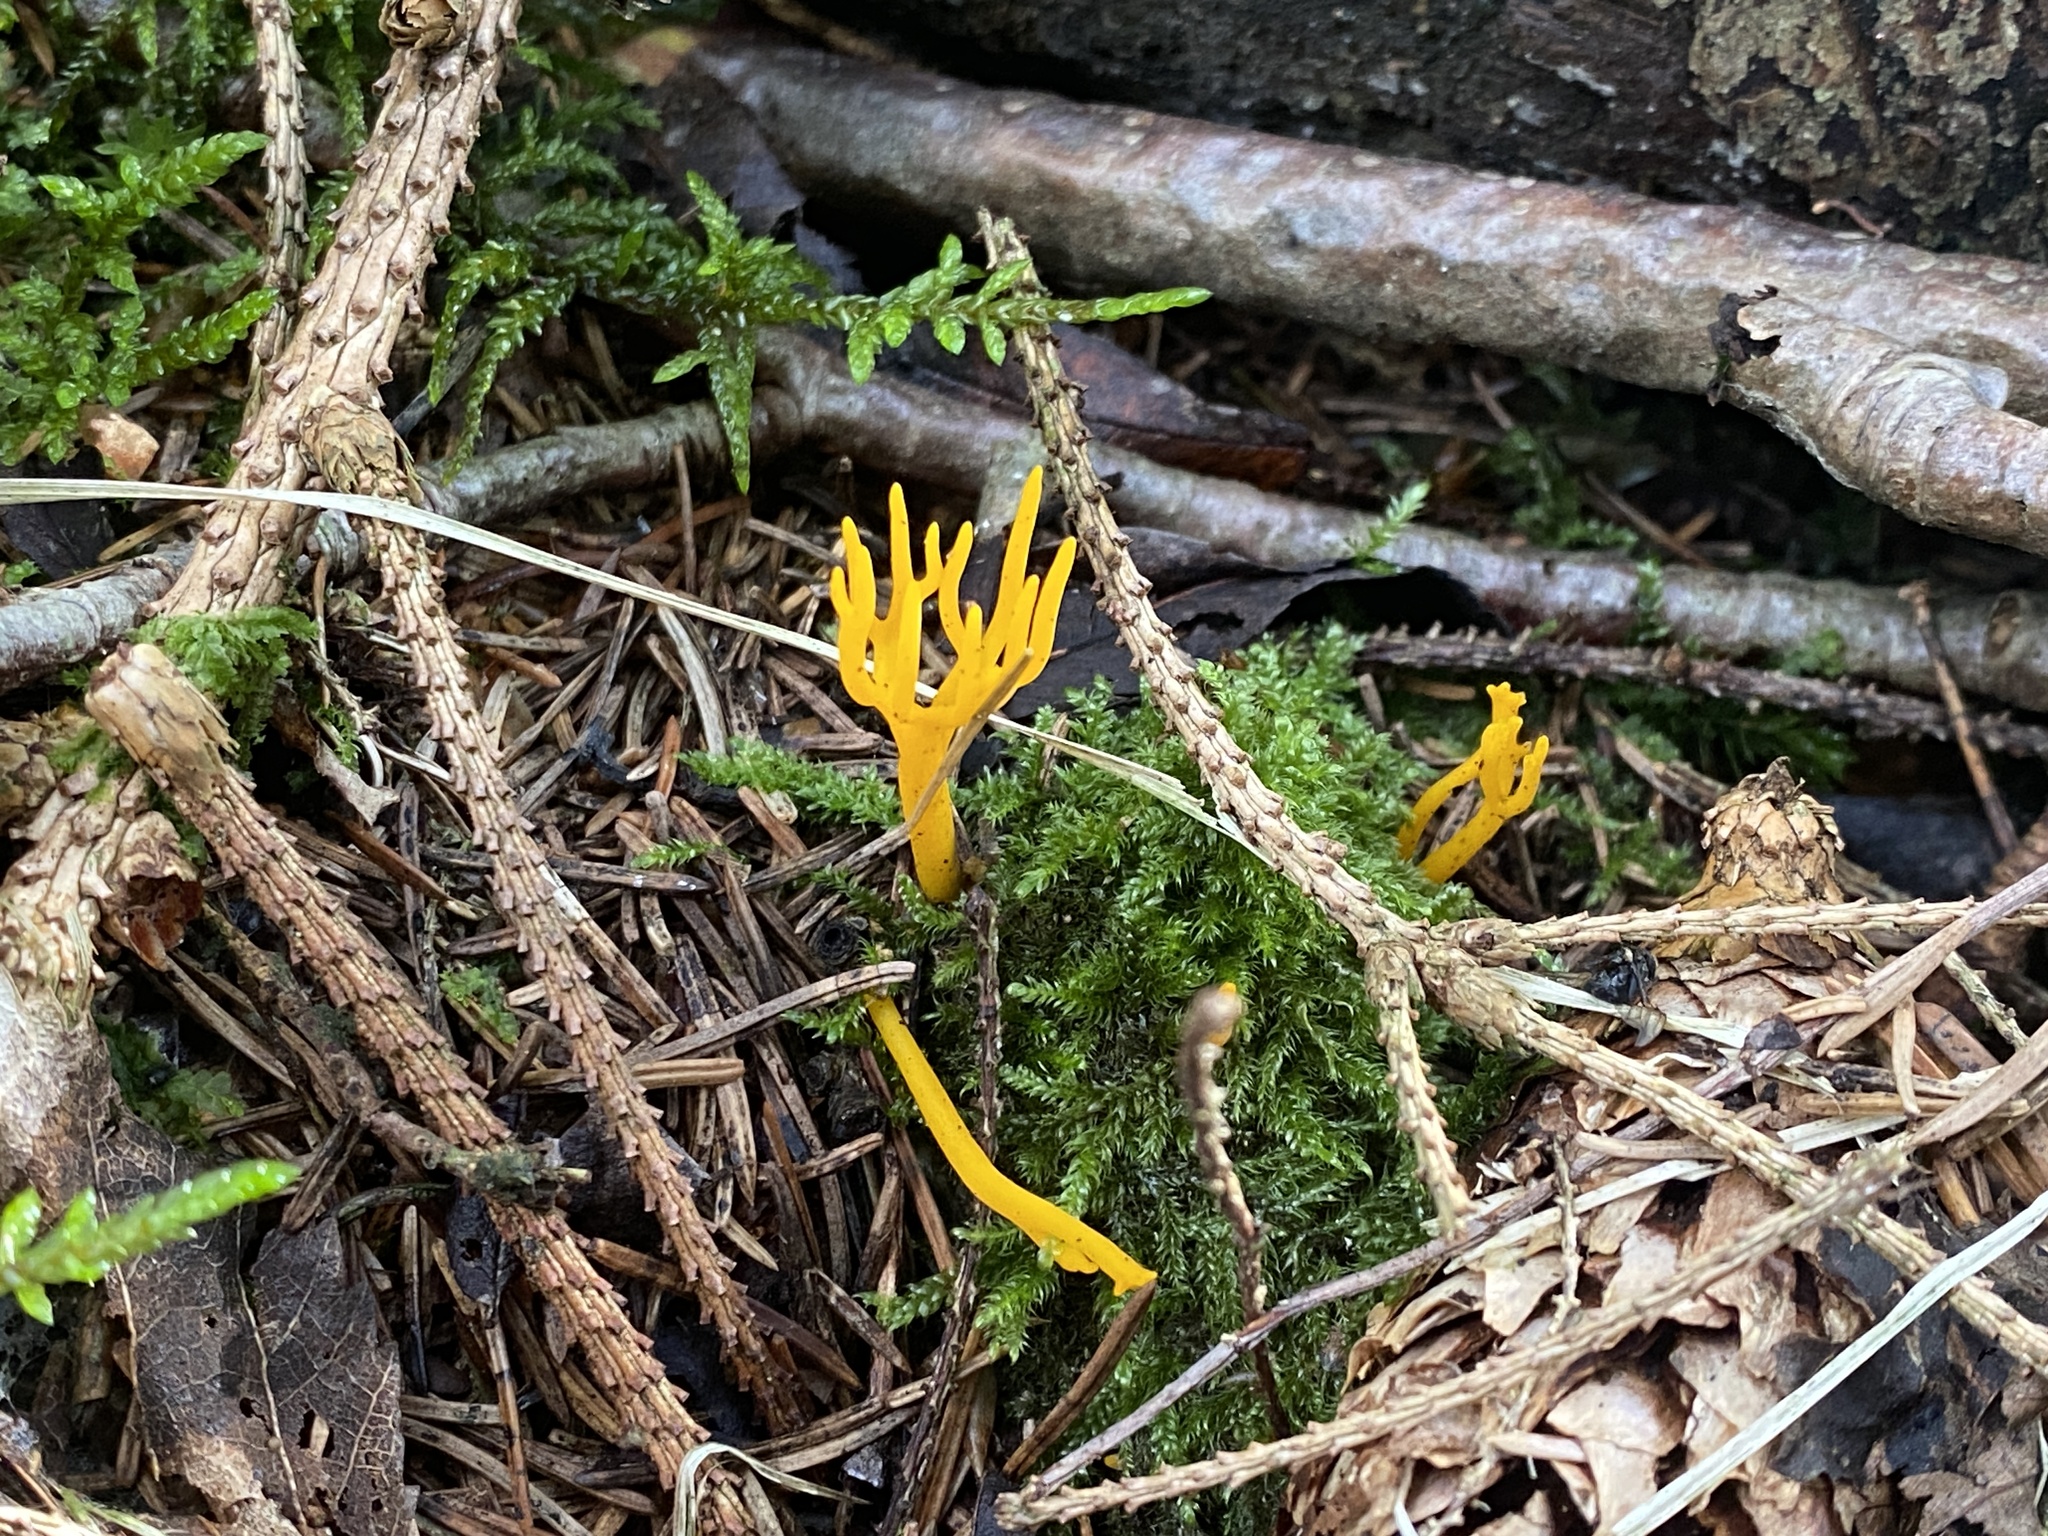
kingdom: Fungi
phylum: Basidiomycota
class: Dacrymycetes
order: Dacrymycetales
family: Dacrymycetaceae
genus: Calocera
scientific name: Calocera viscosa
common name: Yellow stagshorn
